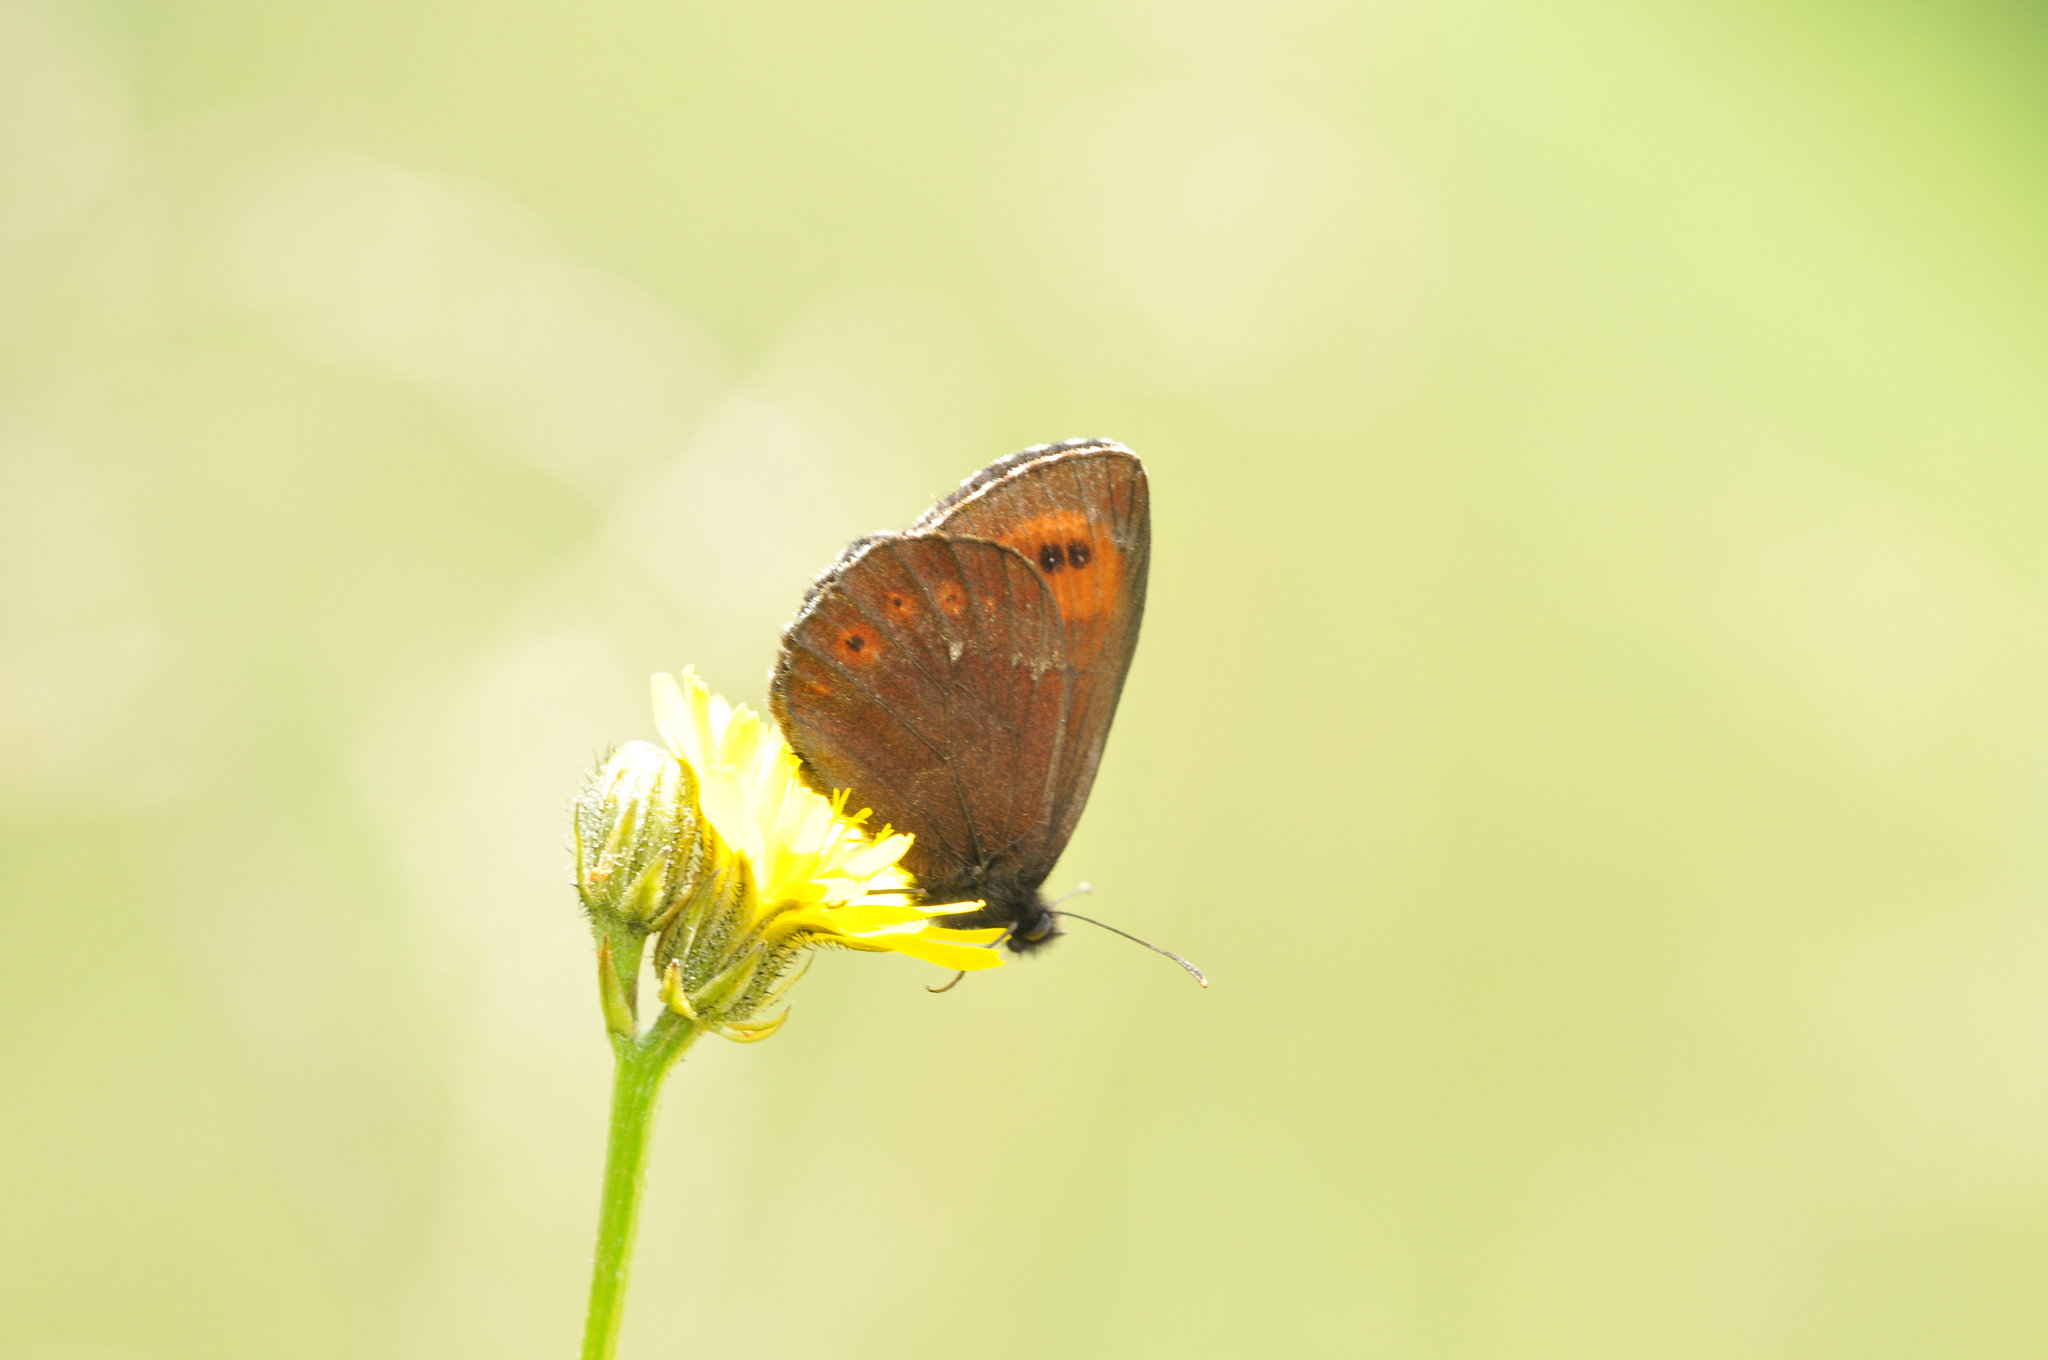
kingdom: Animalia
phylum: Arthropoda
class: Insecta
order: Lepidoptera
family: Nymphalidae
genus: Erebia
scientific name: Erebia euryale
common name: Large ringlet
